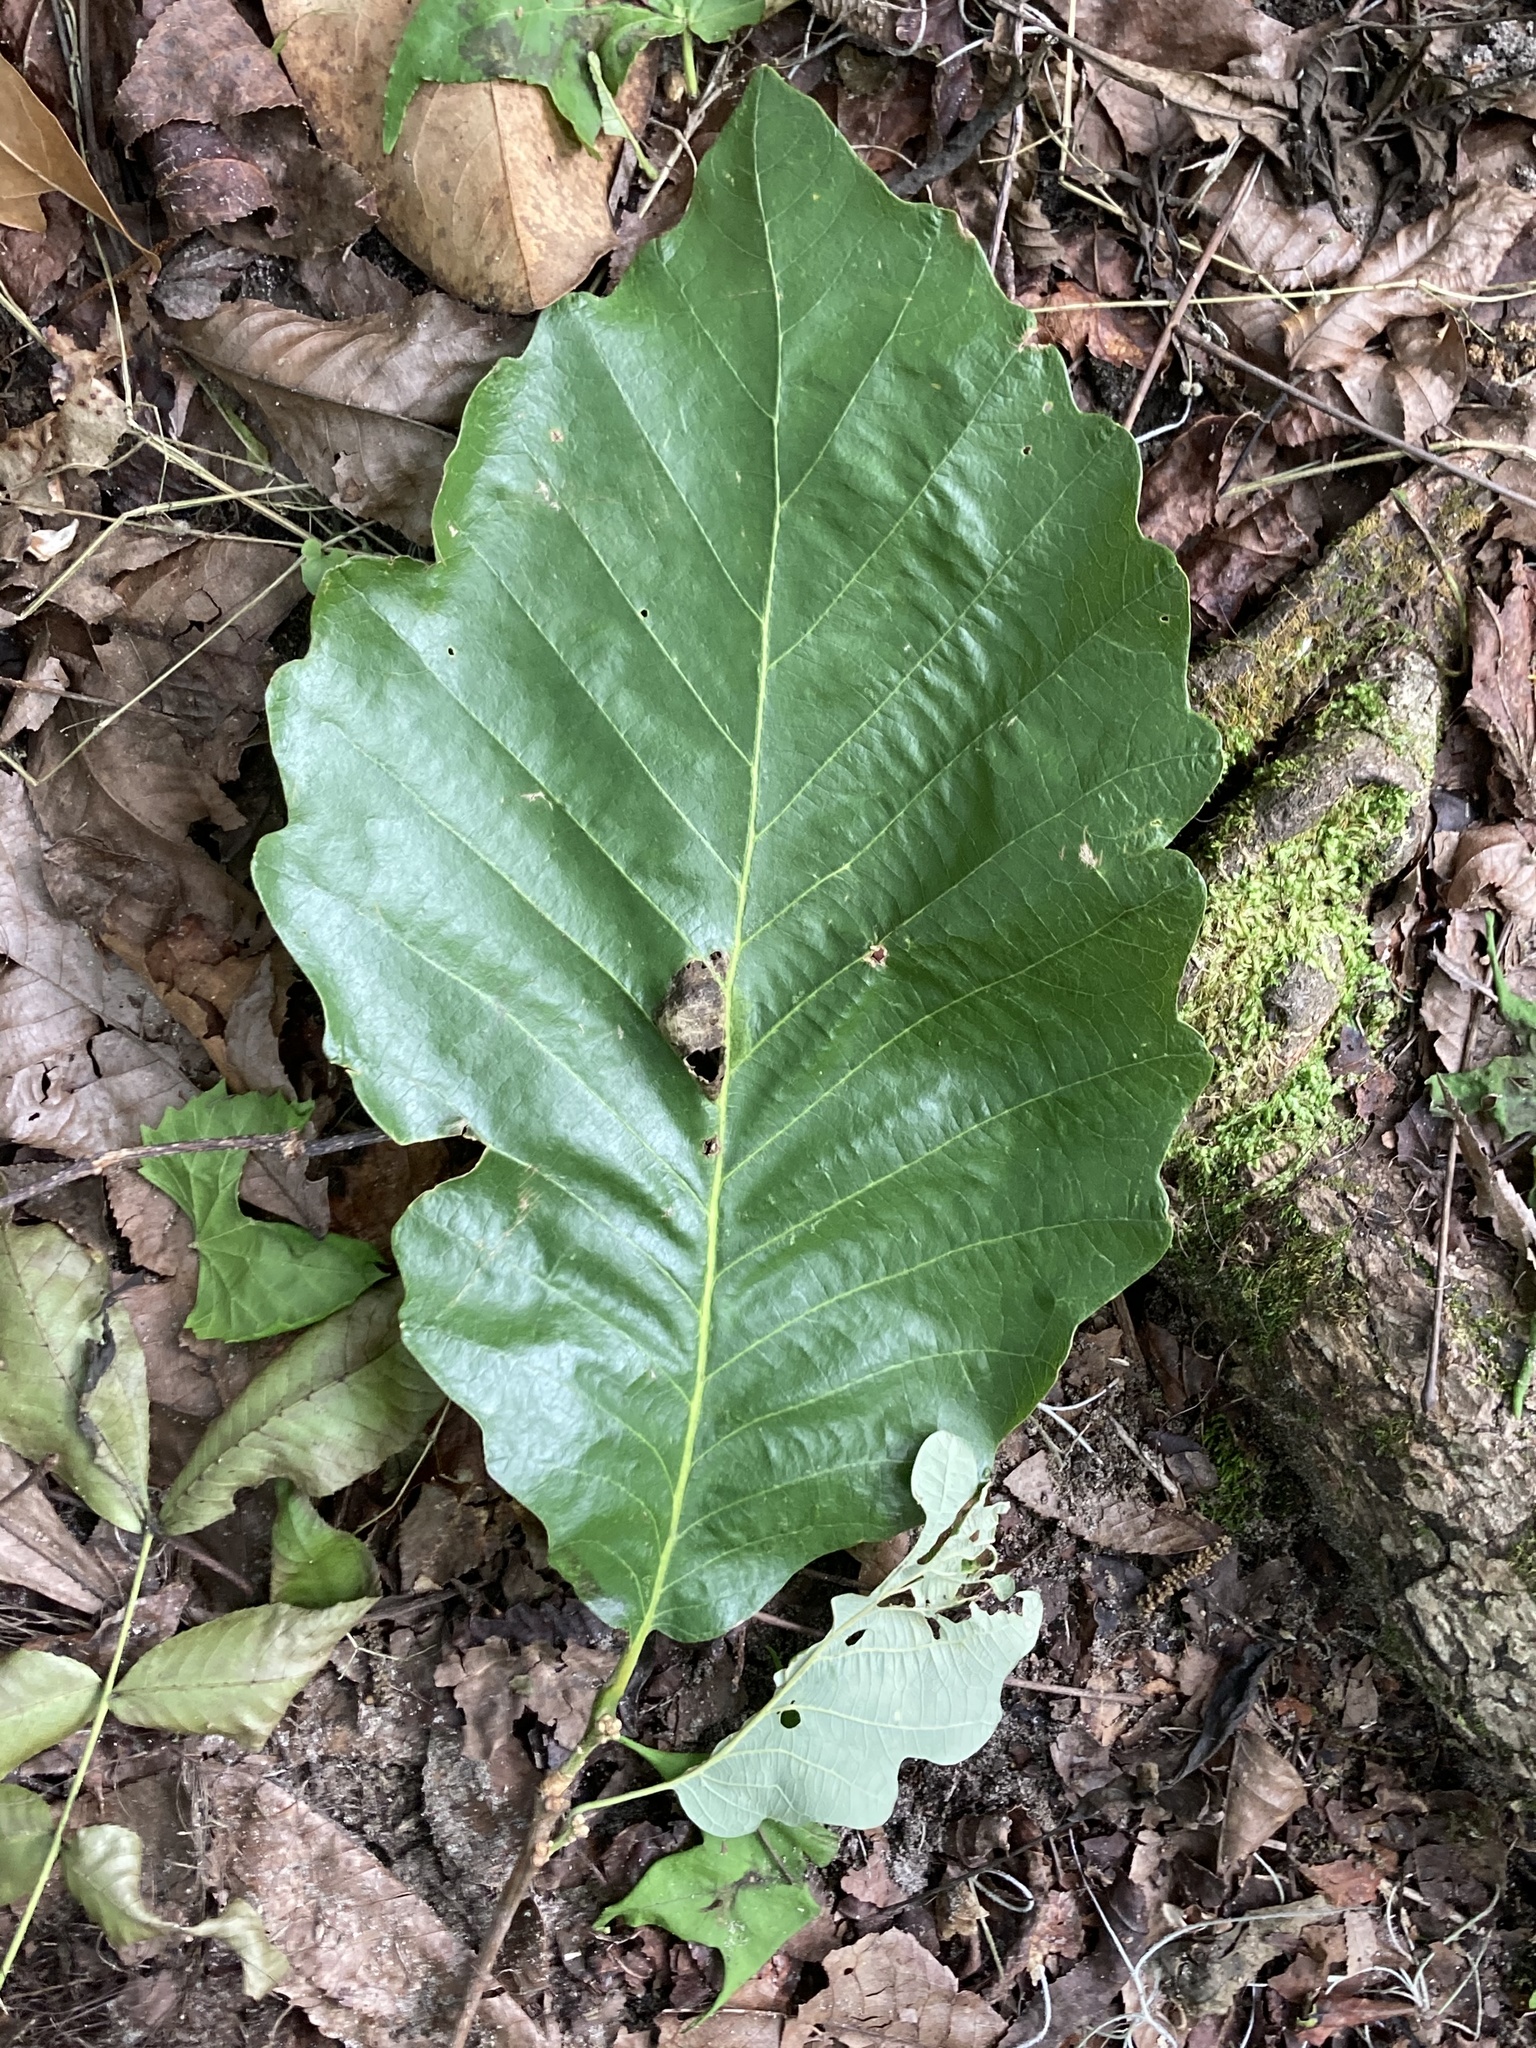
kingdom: Plantae
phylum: Tracheophyta
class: Magnoliopsida
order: Fagales
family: Fagaceae
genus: Quercus
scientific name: Quercus michauxii
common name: Swamp chestnut oak
